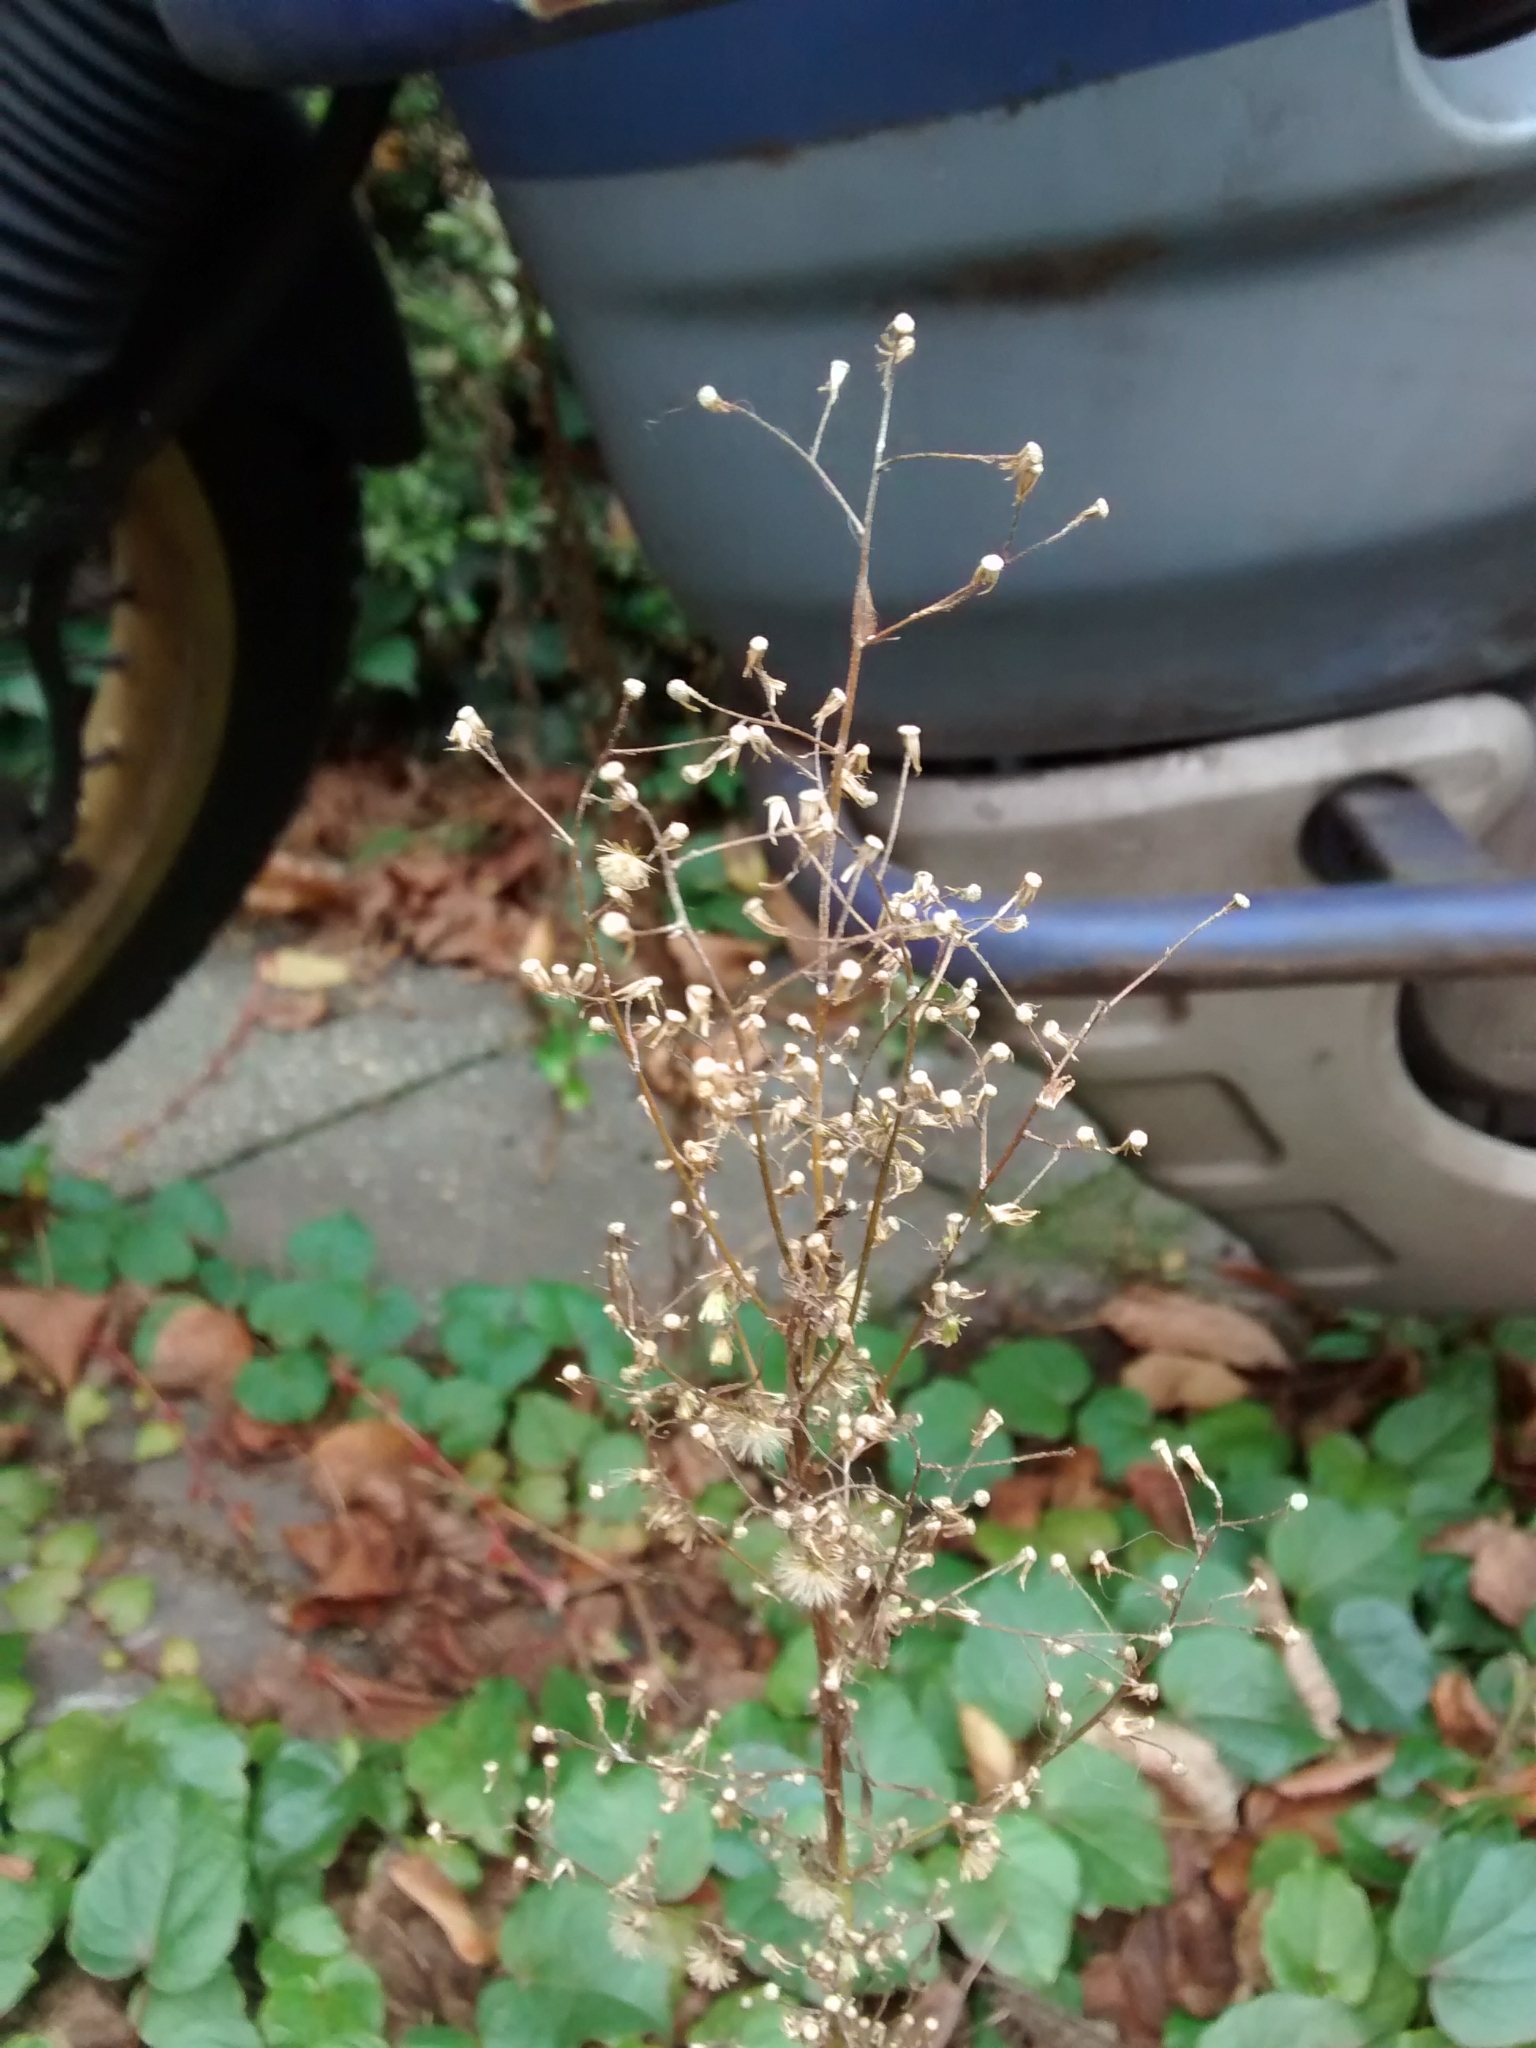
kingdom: Plantae
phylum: Tracheophyta
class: Magnoliopsida
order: Asterales
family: Asteraceae
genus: Erigeron
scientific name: Erigeron canadensis
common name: Canadian fleabane
